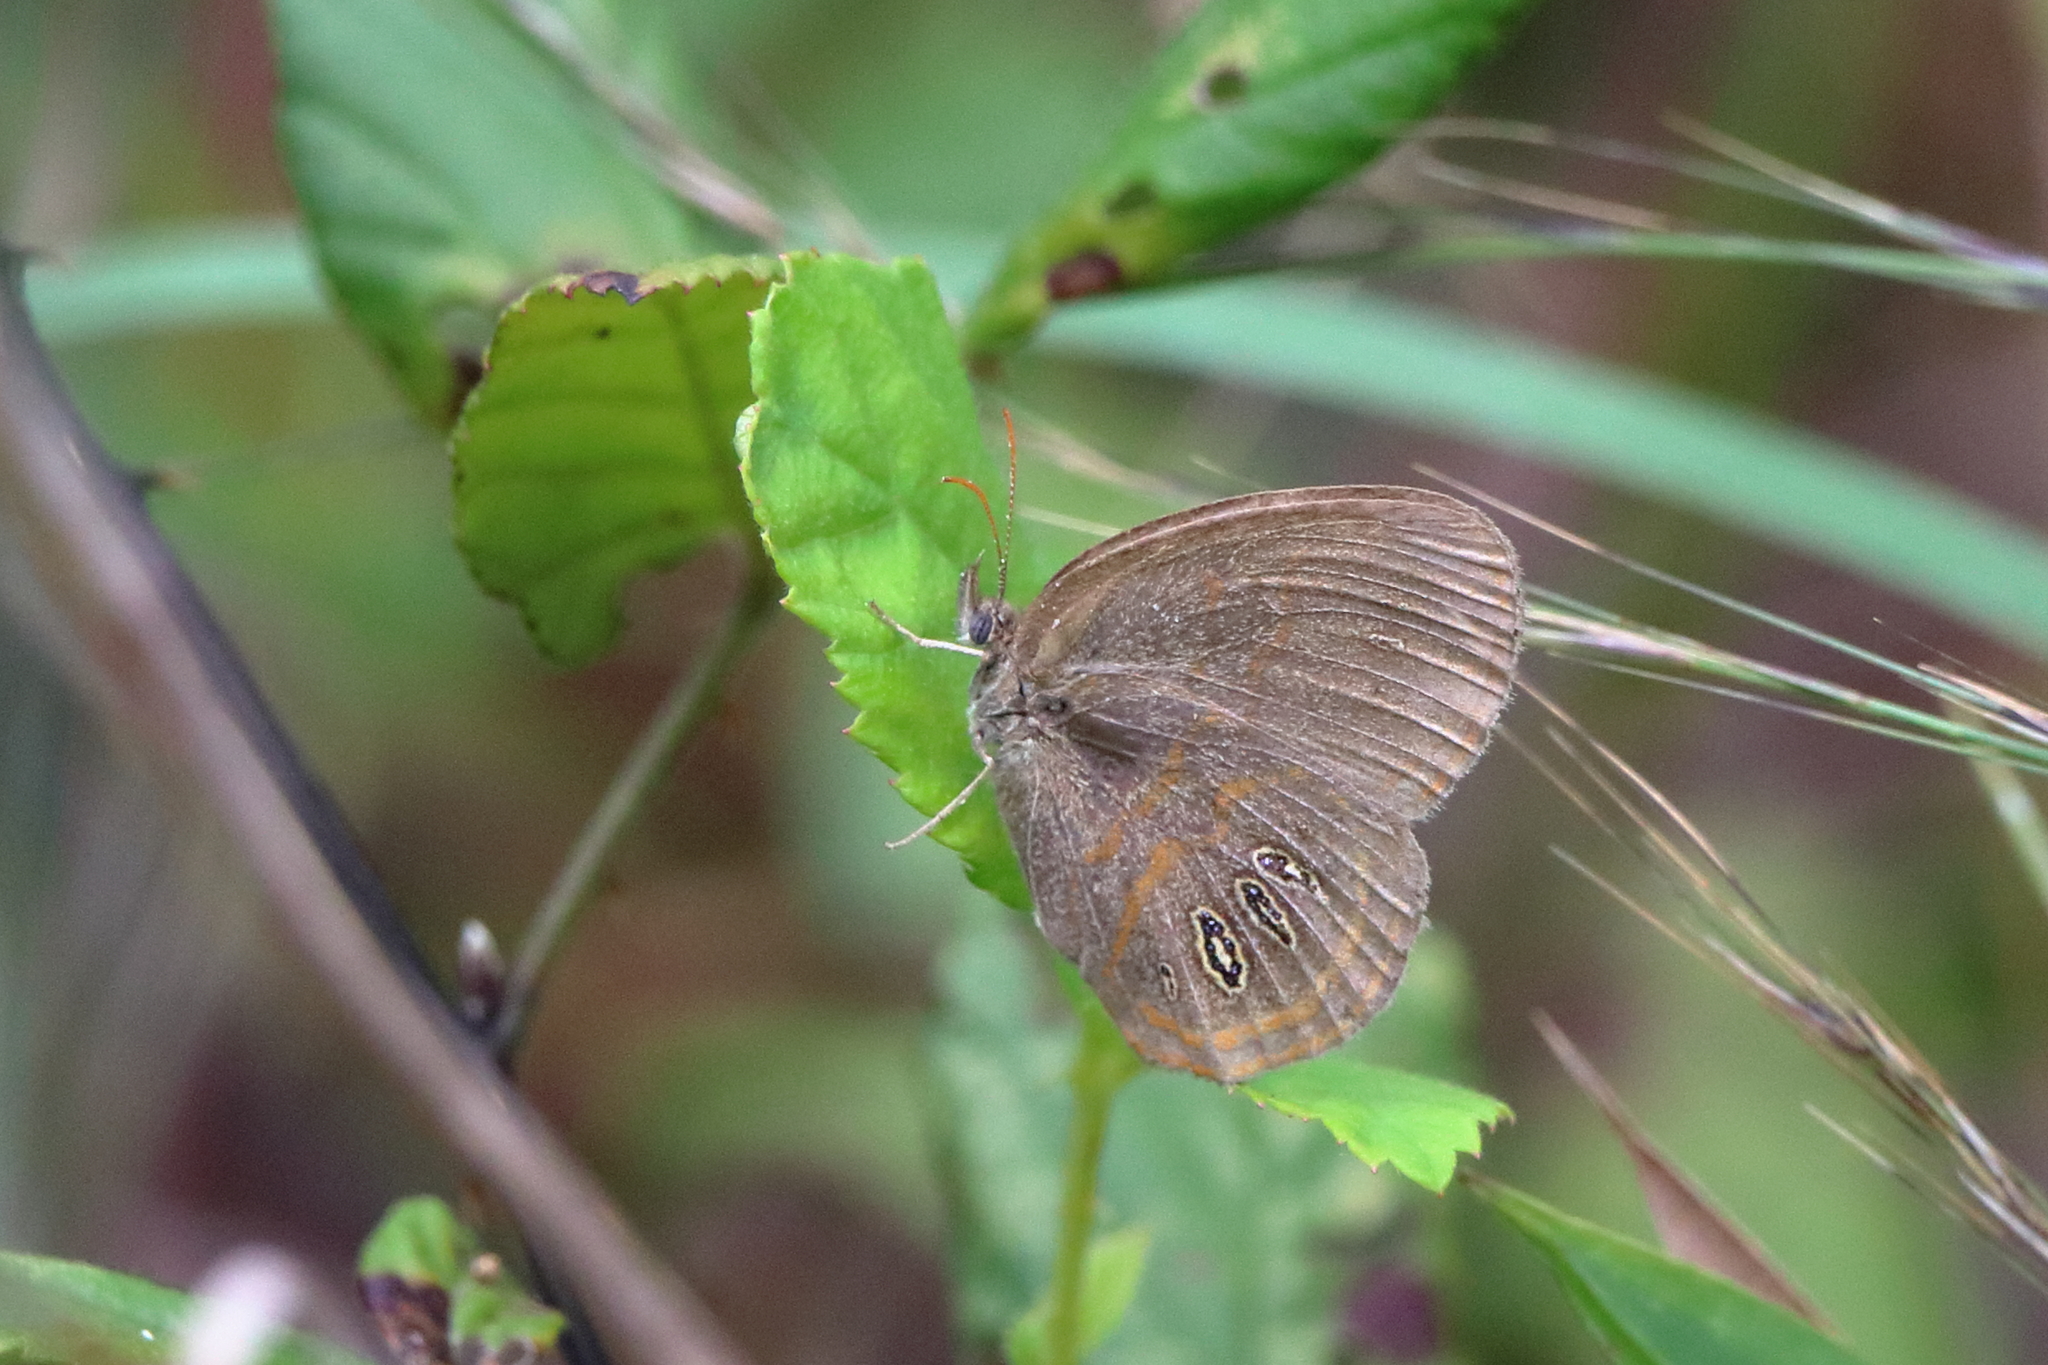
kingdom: Animalia
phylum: Arthropoda
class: Insecta
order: Lepidoptera
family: Nymphalidae
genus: Euptychia
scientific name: Euptychia phocion
